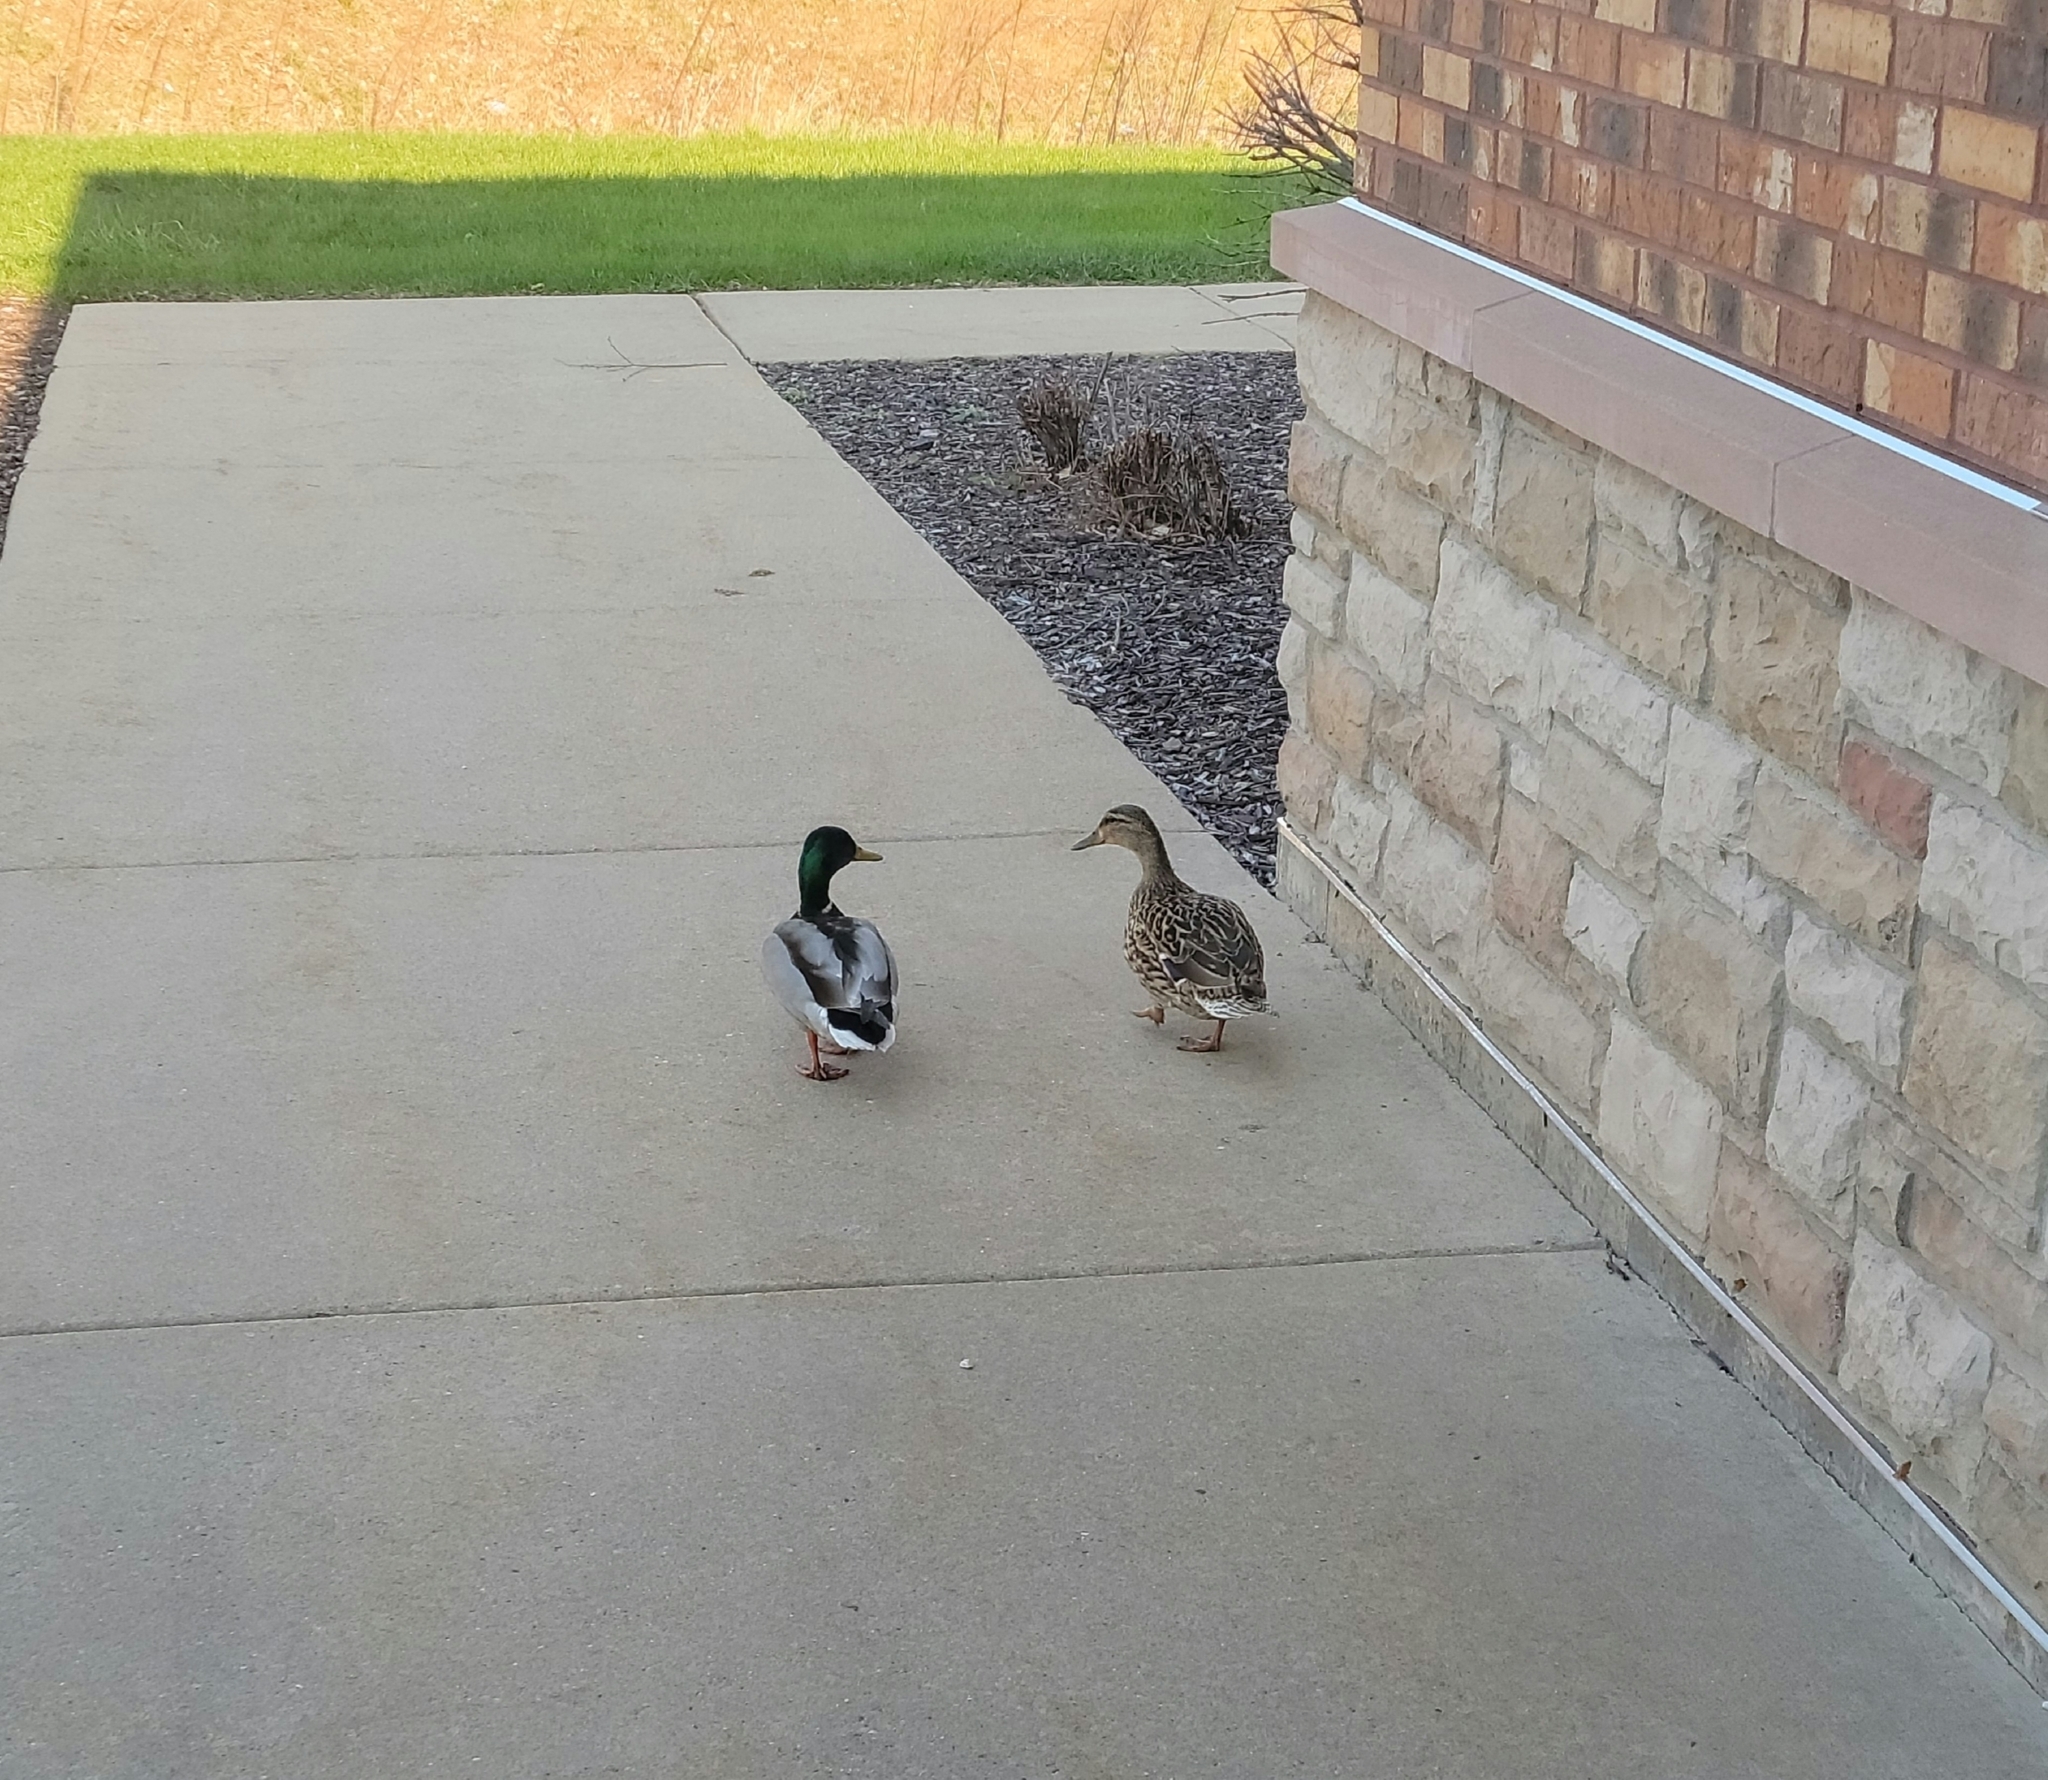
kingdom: Animalia
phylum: Chordata
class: Aves
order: Anseriformes
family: Anatidae
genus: Anas
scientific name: Anas platyrhynchos
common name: Mallard
